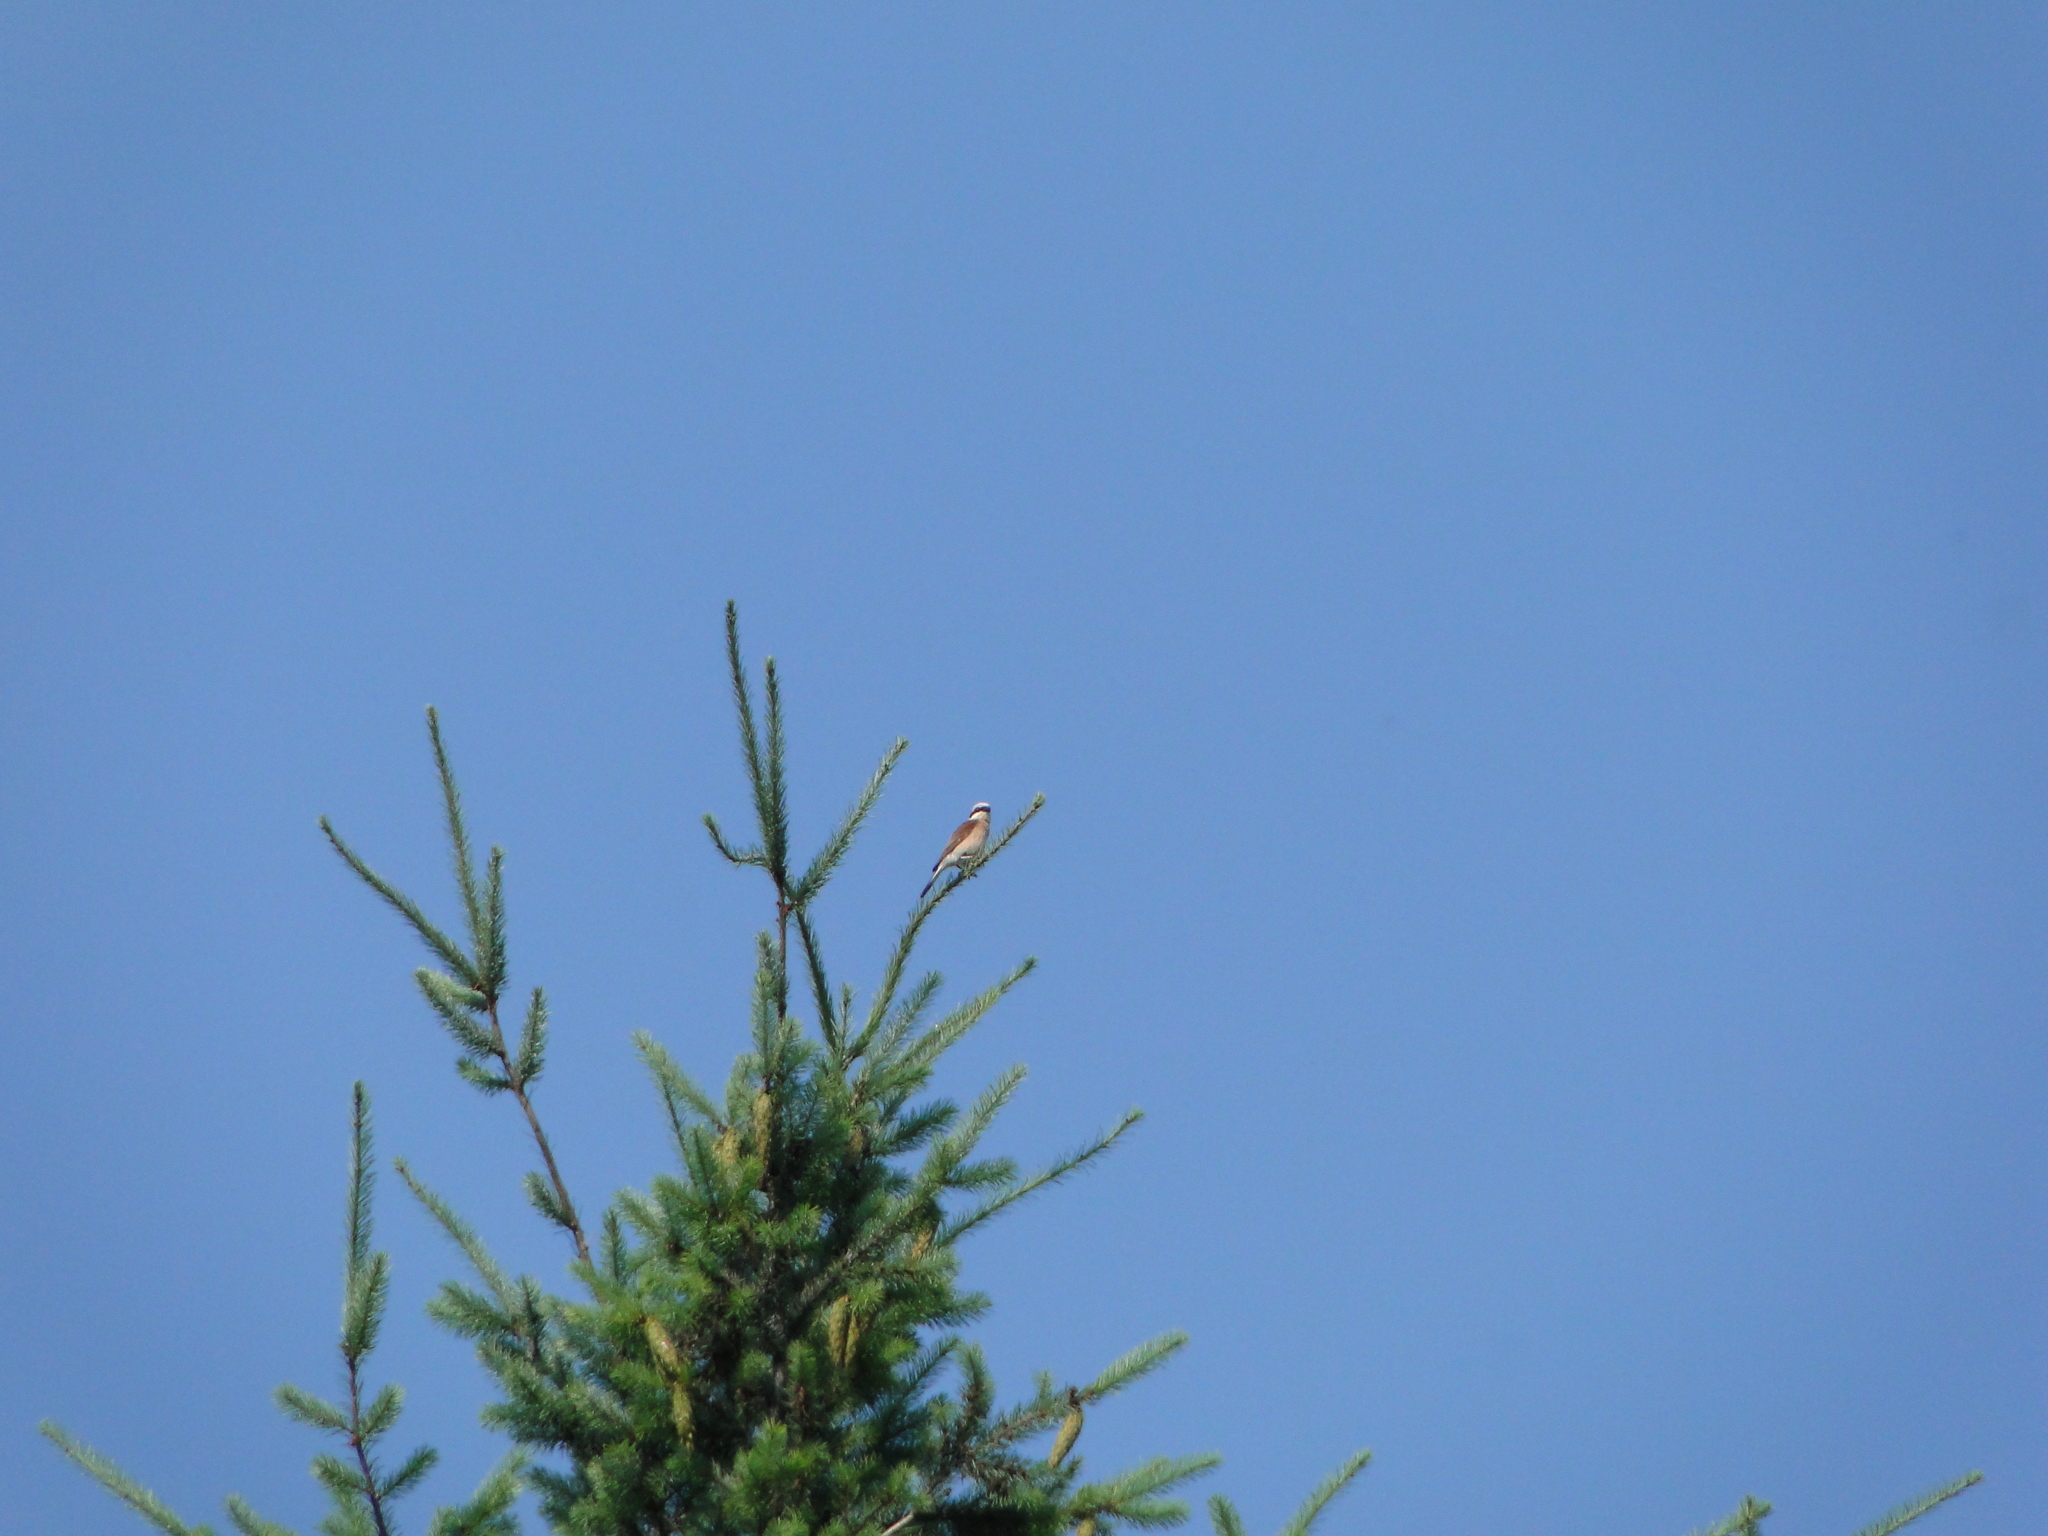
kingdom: Animalia
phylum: Chordata
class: Aves
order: Passeriformes
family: Laniidae
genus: Lanius
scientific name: Lanius collurio
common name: Red-backed shrike
